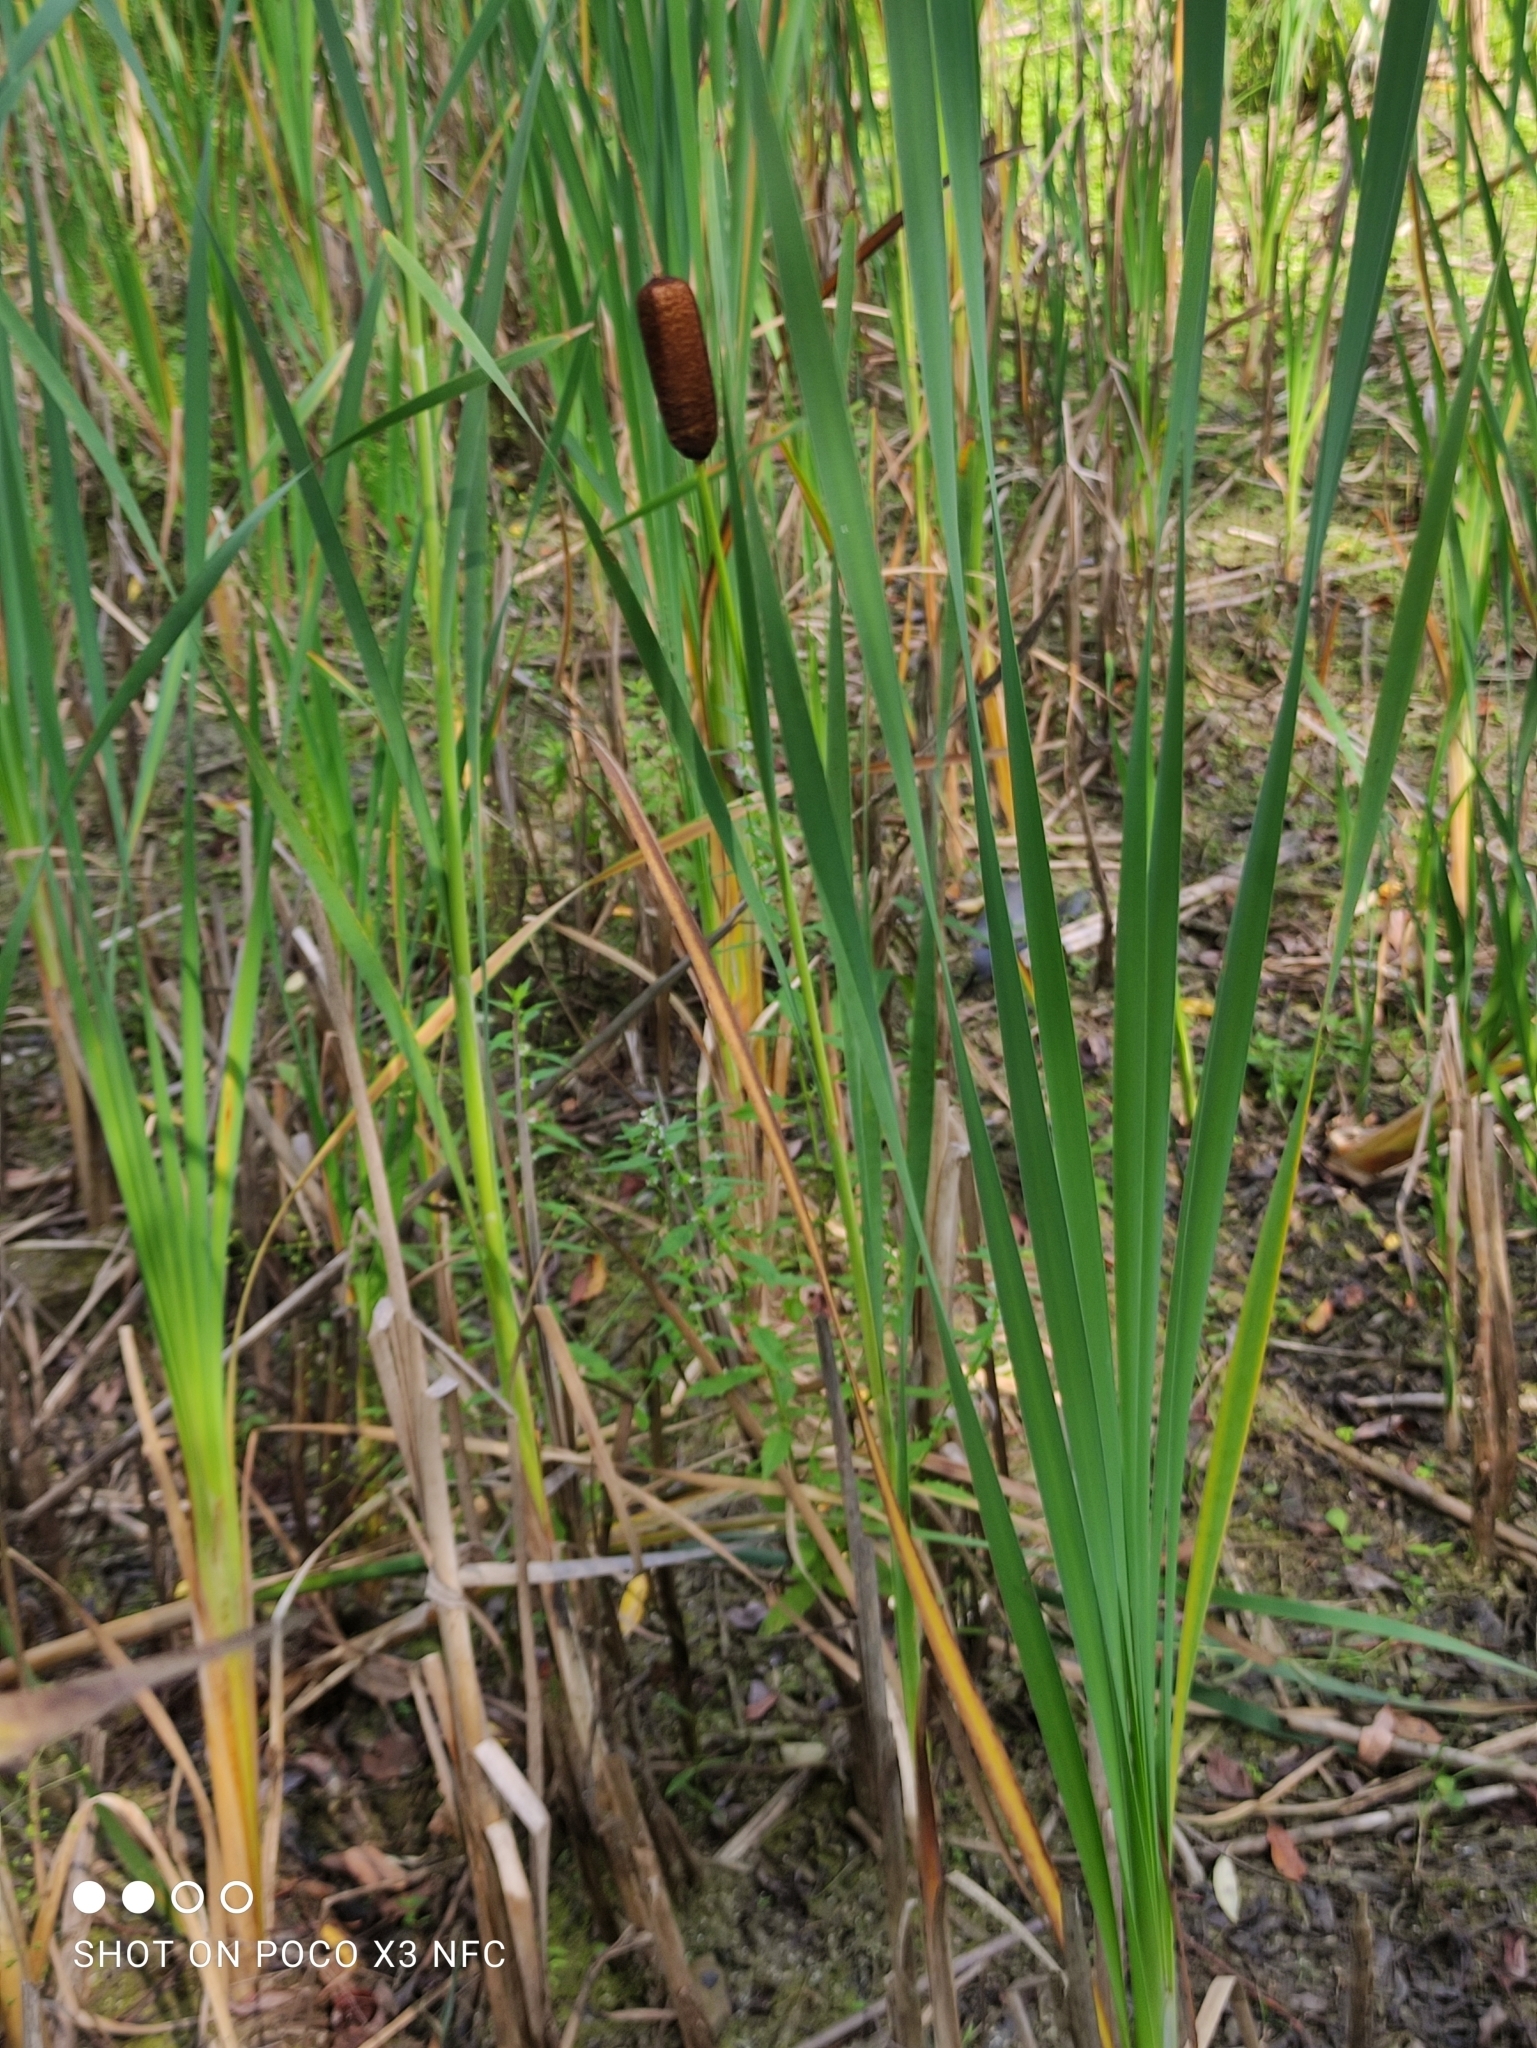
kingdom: Plantae
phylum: Tracheophyta
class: Liliopsida
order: Poales
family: Typhaceae
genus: Typha
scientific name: Typha latifolia
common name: Broadleaf cattail
